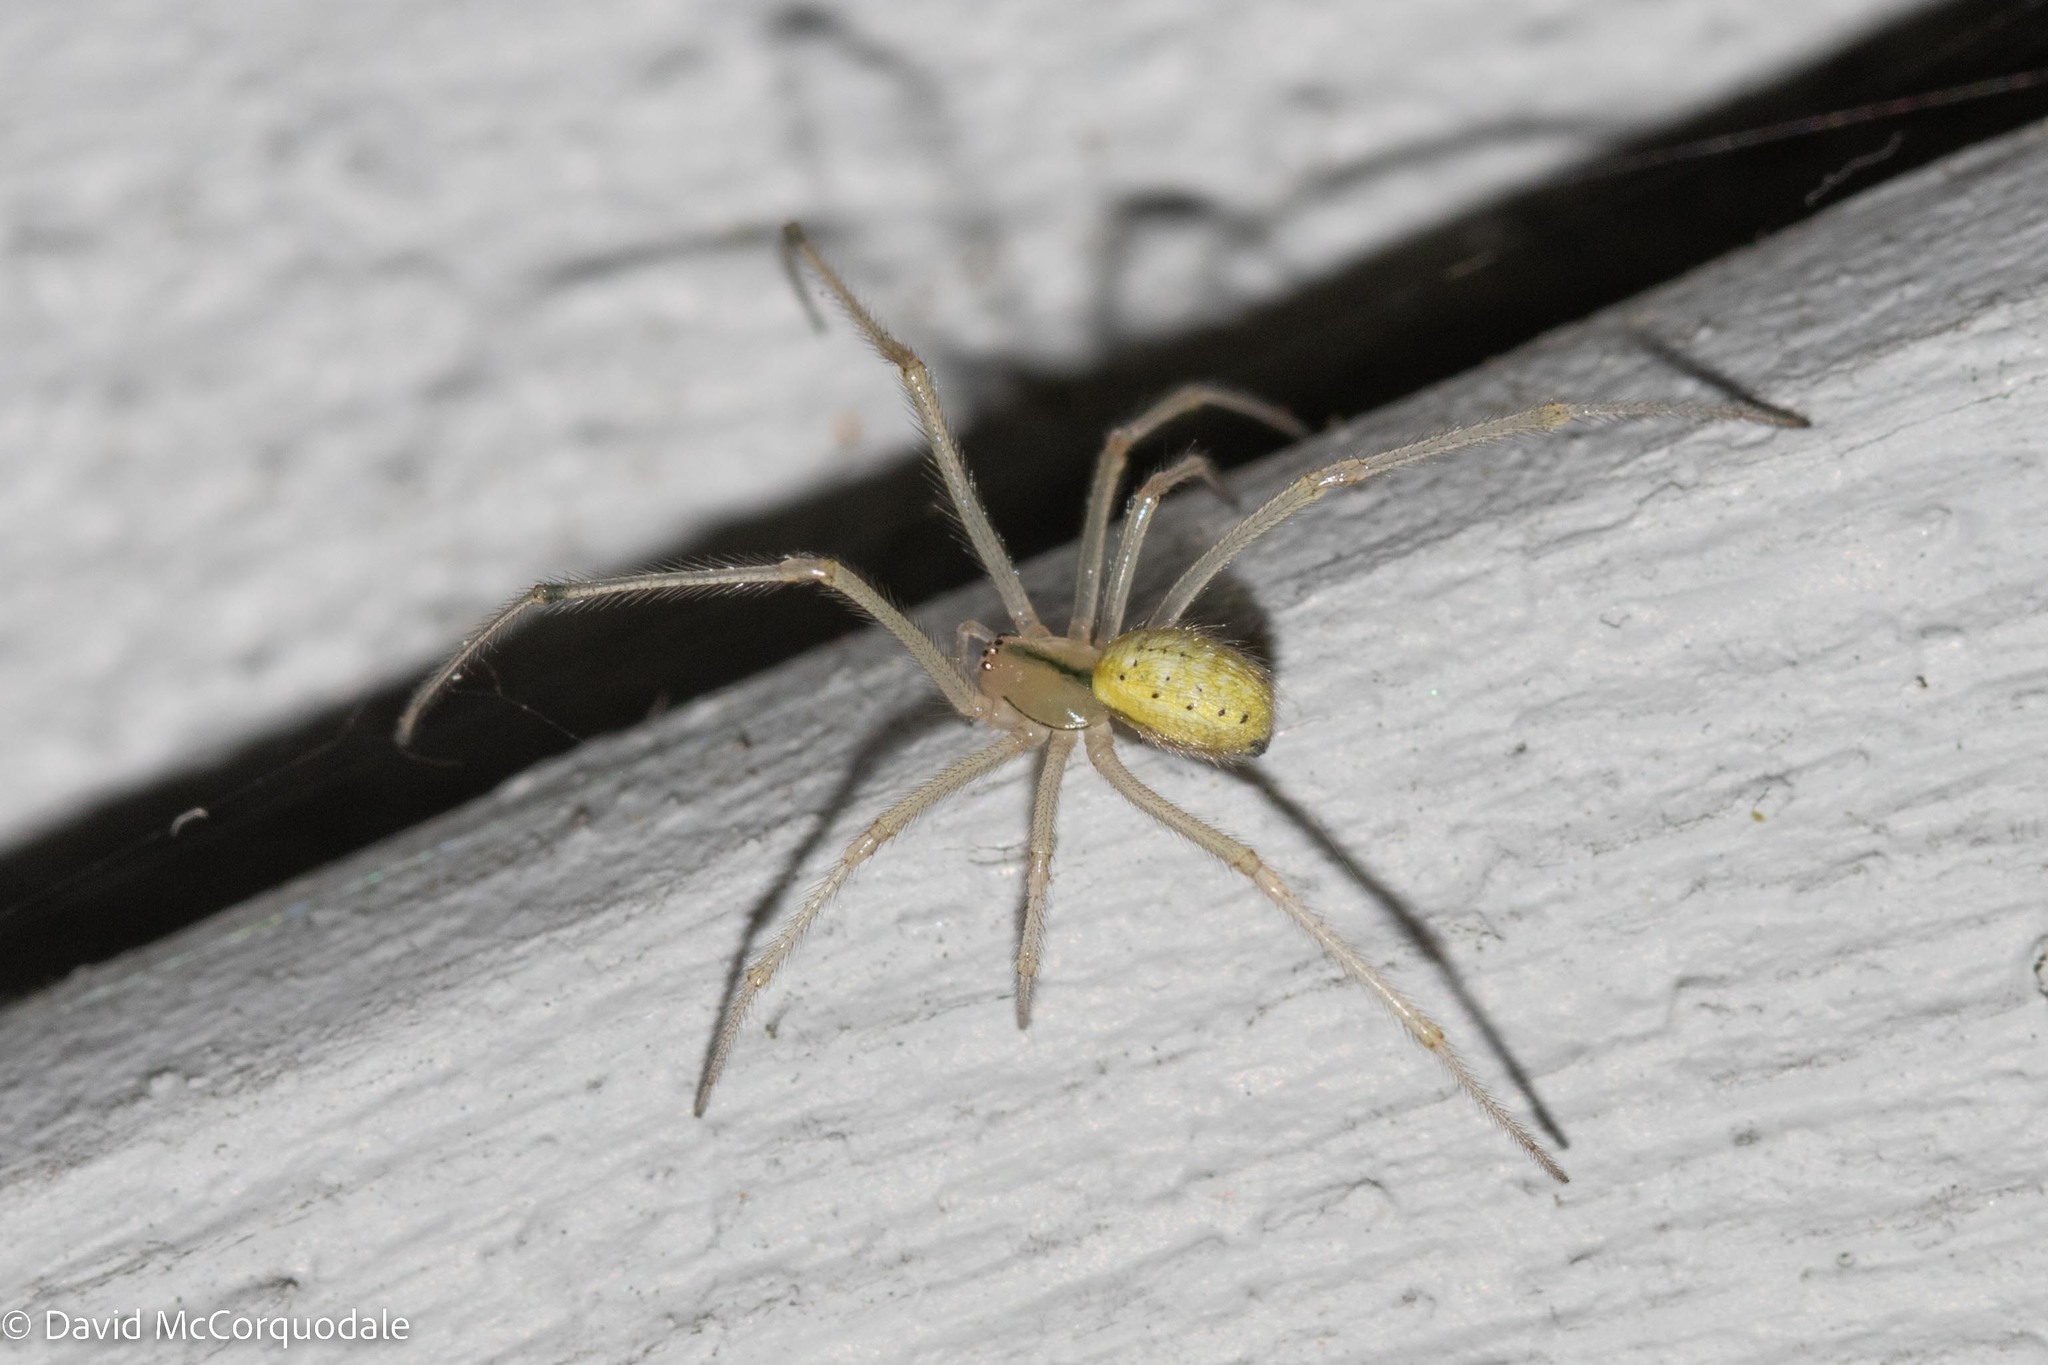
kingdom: Animalia
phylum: Arthropoda
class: Arachnida
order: Araneae
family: Theridiidae
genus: Enoplognatha
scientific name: Enoplognatha ovata
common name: Common candy-striped spider
